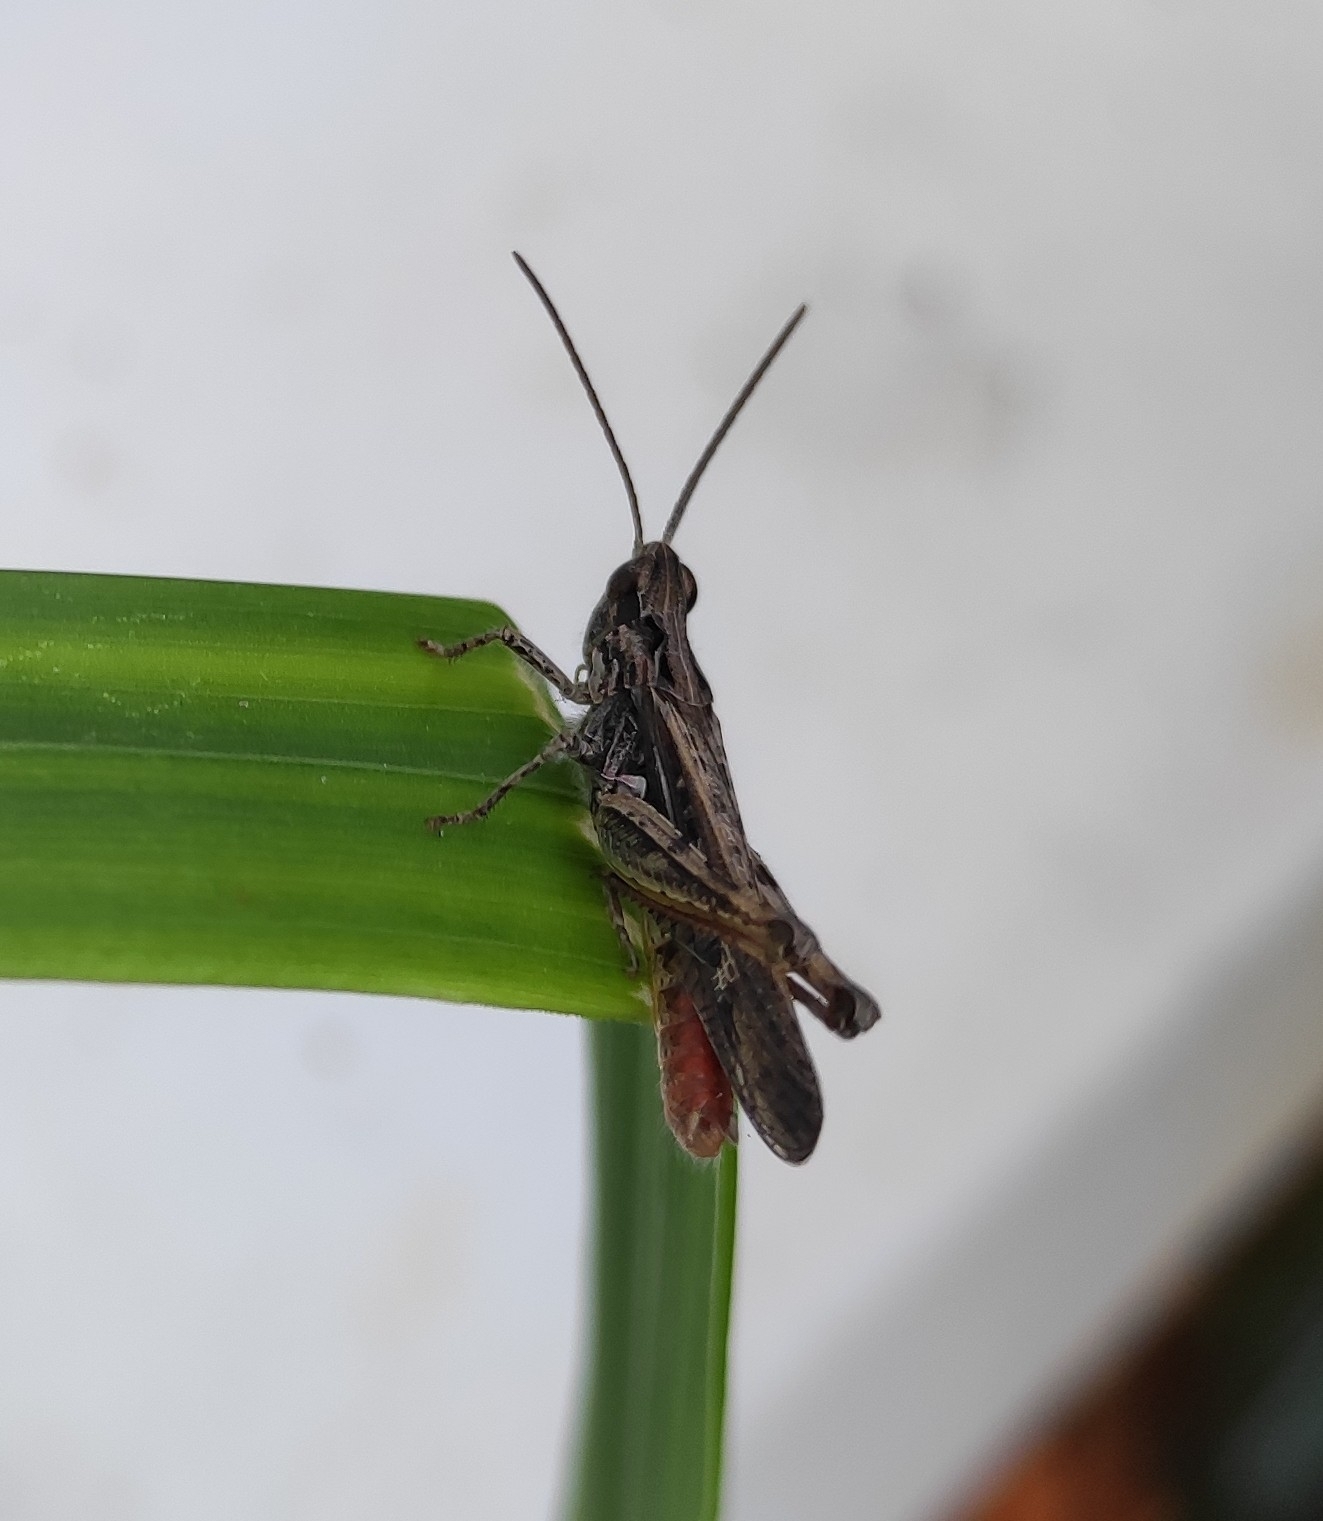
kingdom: Animalia
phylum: Arthropoda
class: Insecta
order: Orthoptera
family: Acrididae
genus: Chorthippus
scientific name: Chorthippus brunneus
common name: Field grasshopper
